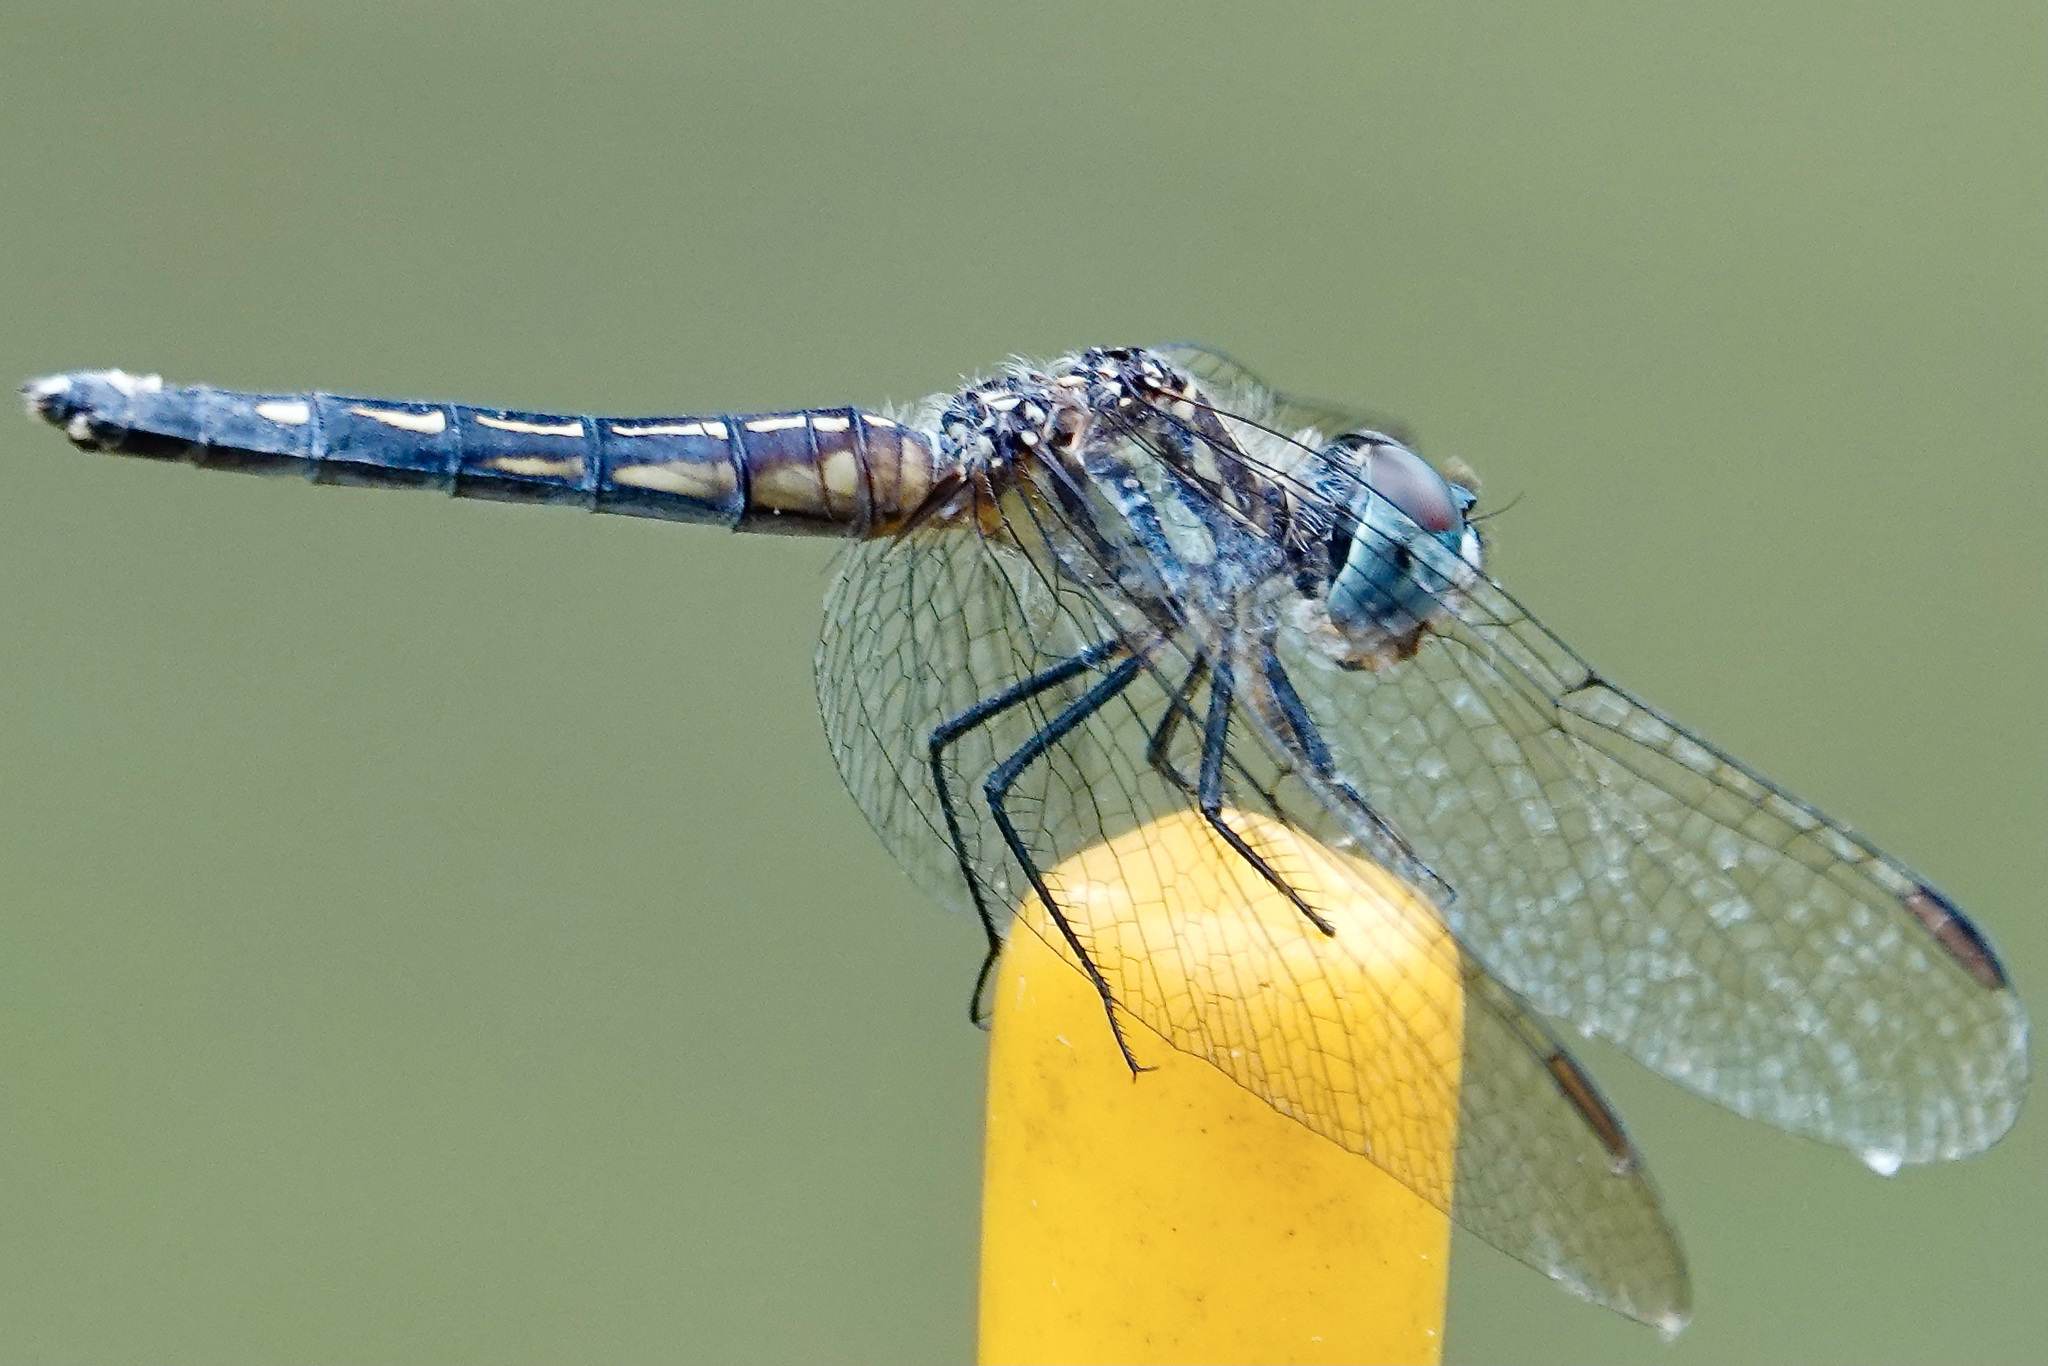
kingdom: Animalia
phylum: Arthropoda
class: Insecta
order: Odonata
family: Libellulidae
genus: Pachydiplax
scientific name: Pachydiplax longipennis
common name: Blue dasher
